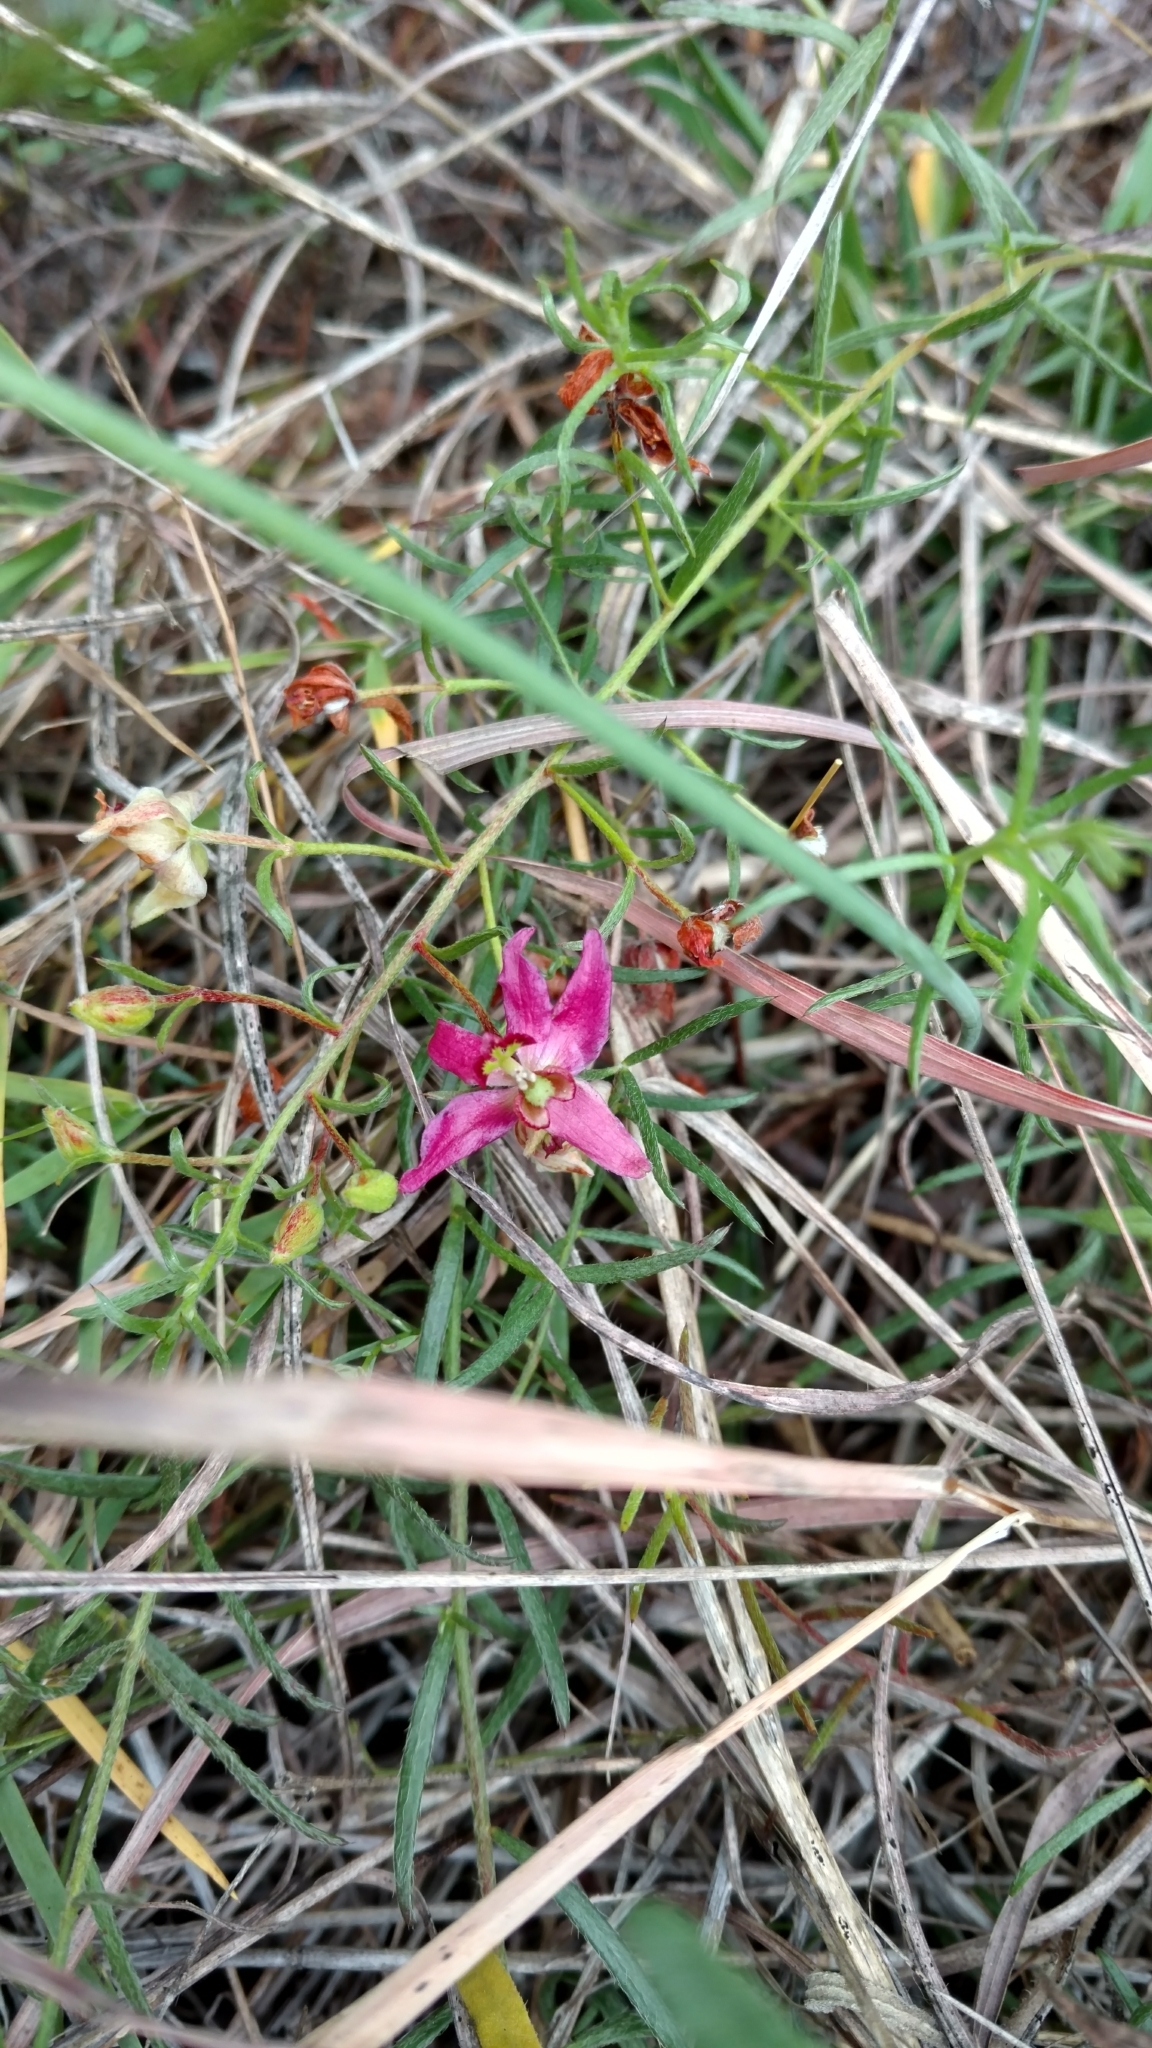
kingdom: Plantae
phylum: Tracheophyta
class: Magnoliopsida
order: Zygophyllales
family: Krameriaceae
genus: Krameria
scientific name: Krameria lanceolata
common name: Ratany
